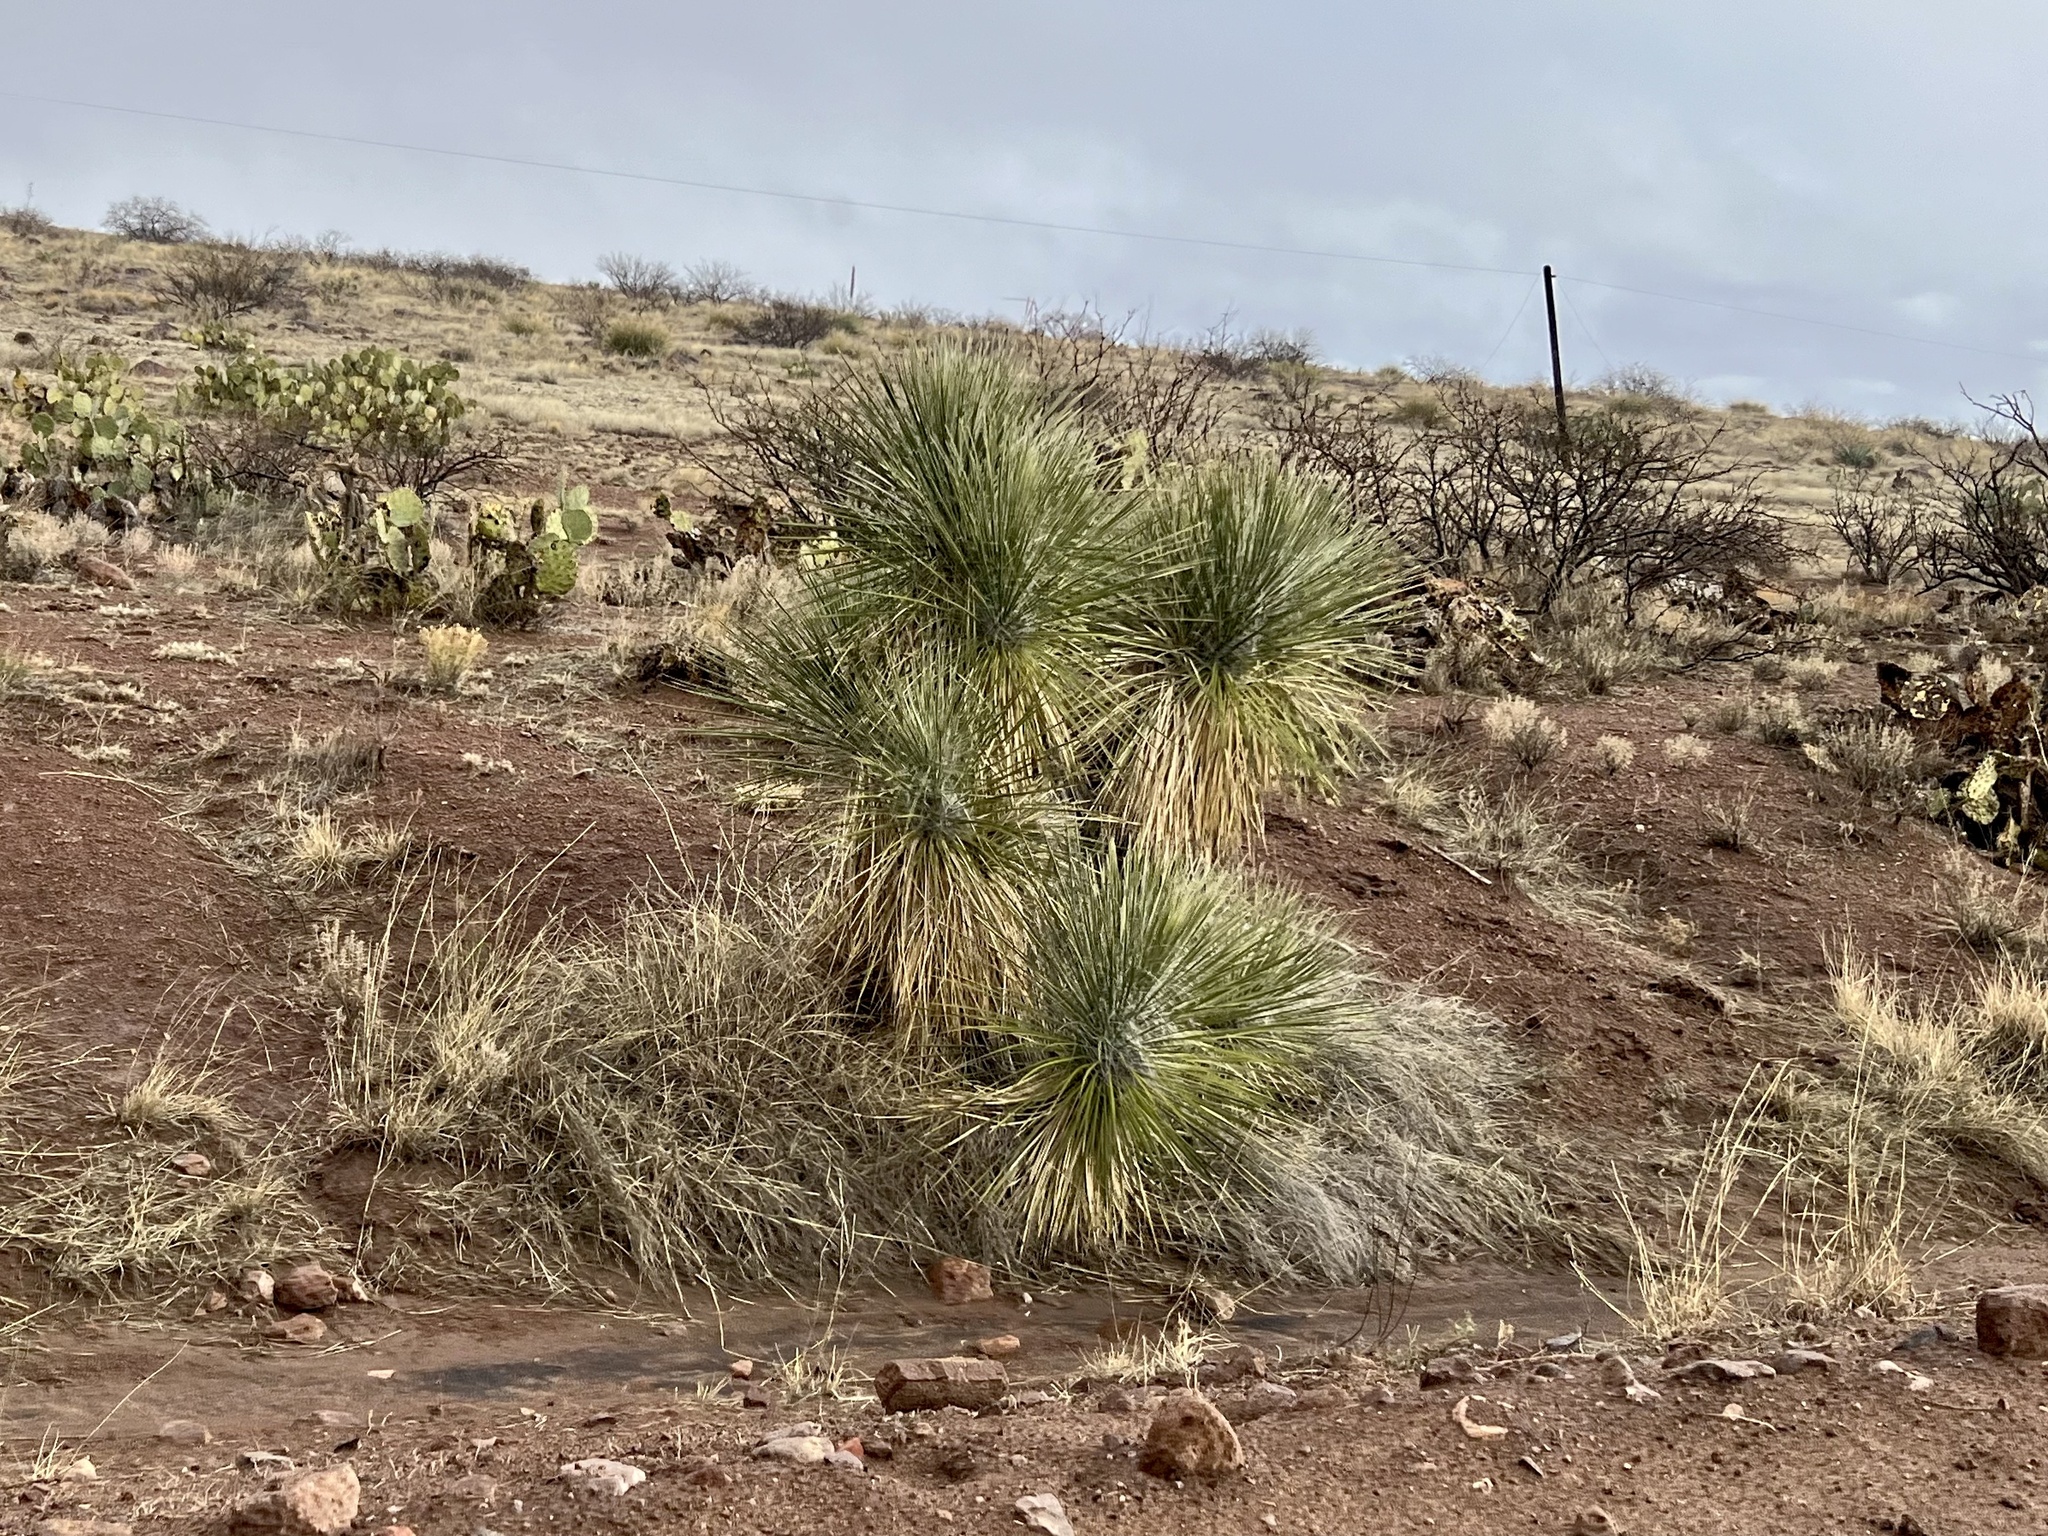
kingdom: Plantae
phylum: Tracheophyta
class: Liliopsida
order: Asparagales
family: Asparagaceae
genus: Yucca
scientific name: Yucca elata
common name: Palmella
